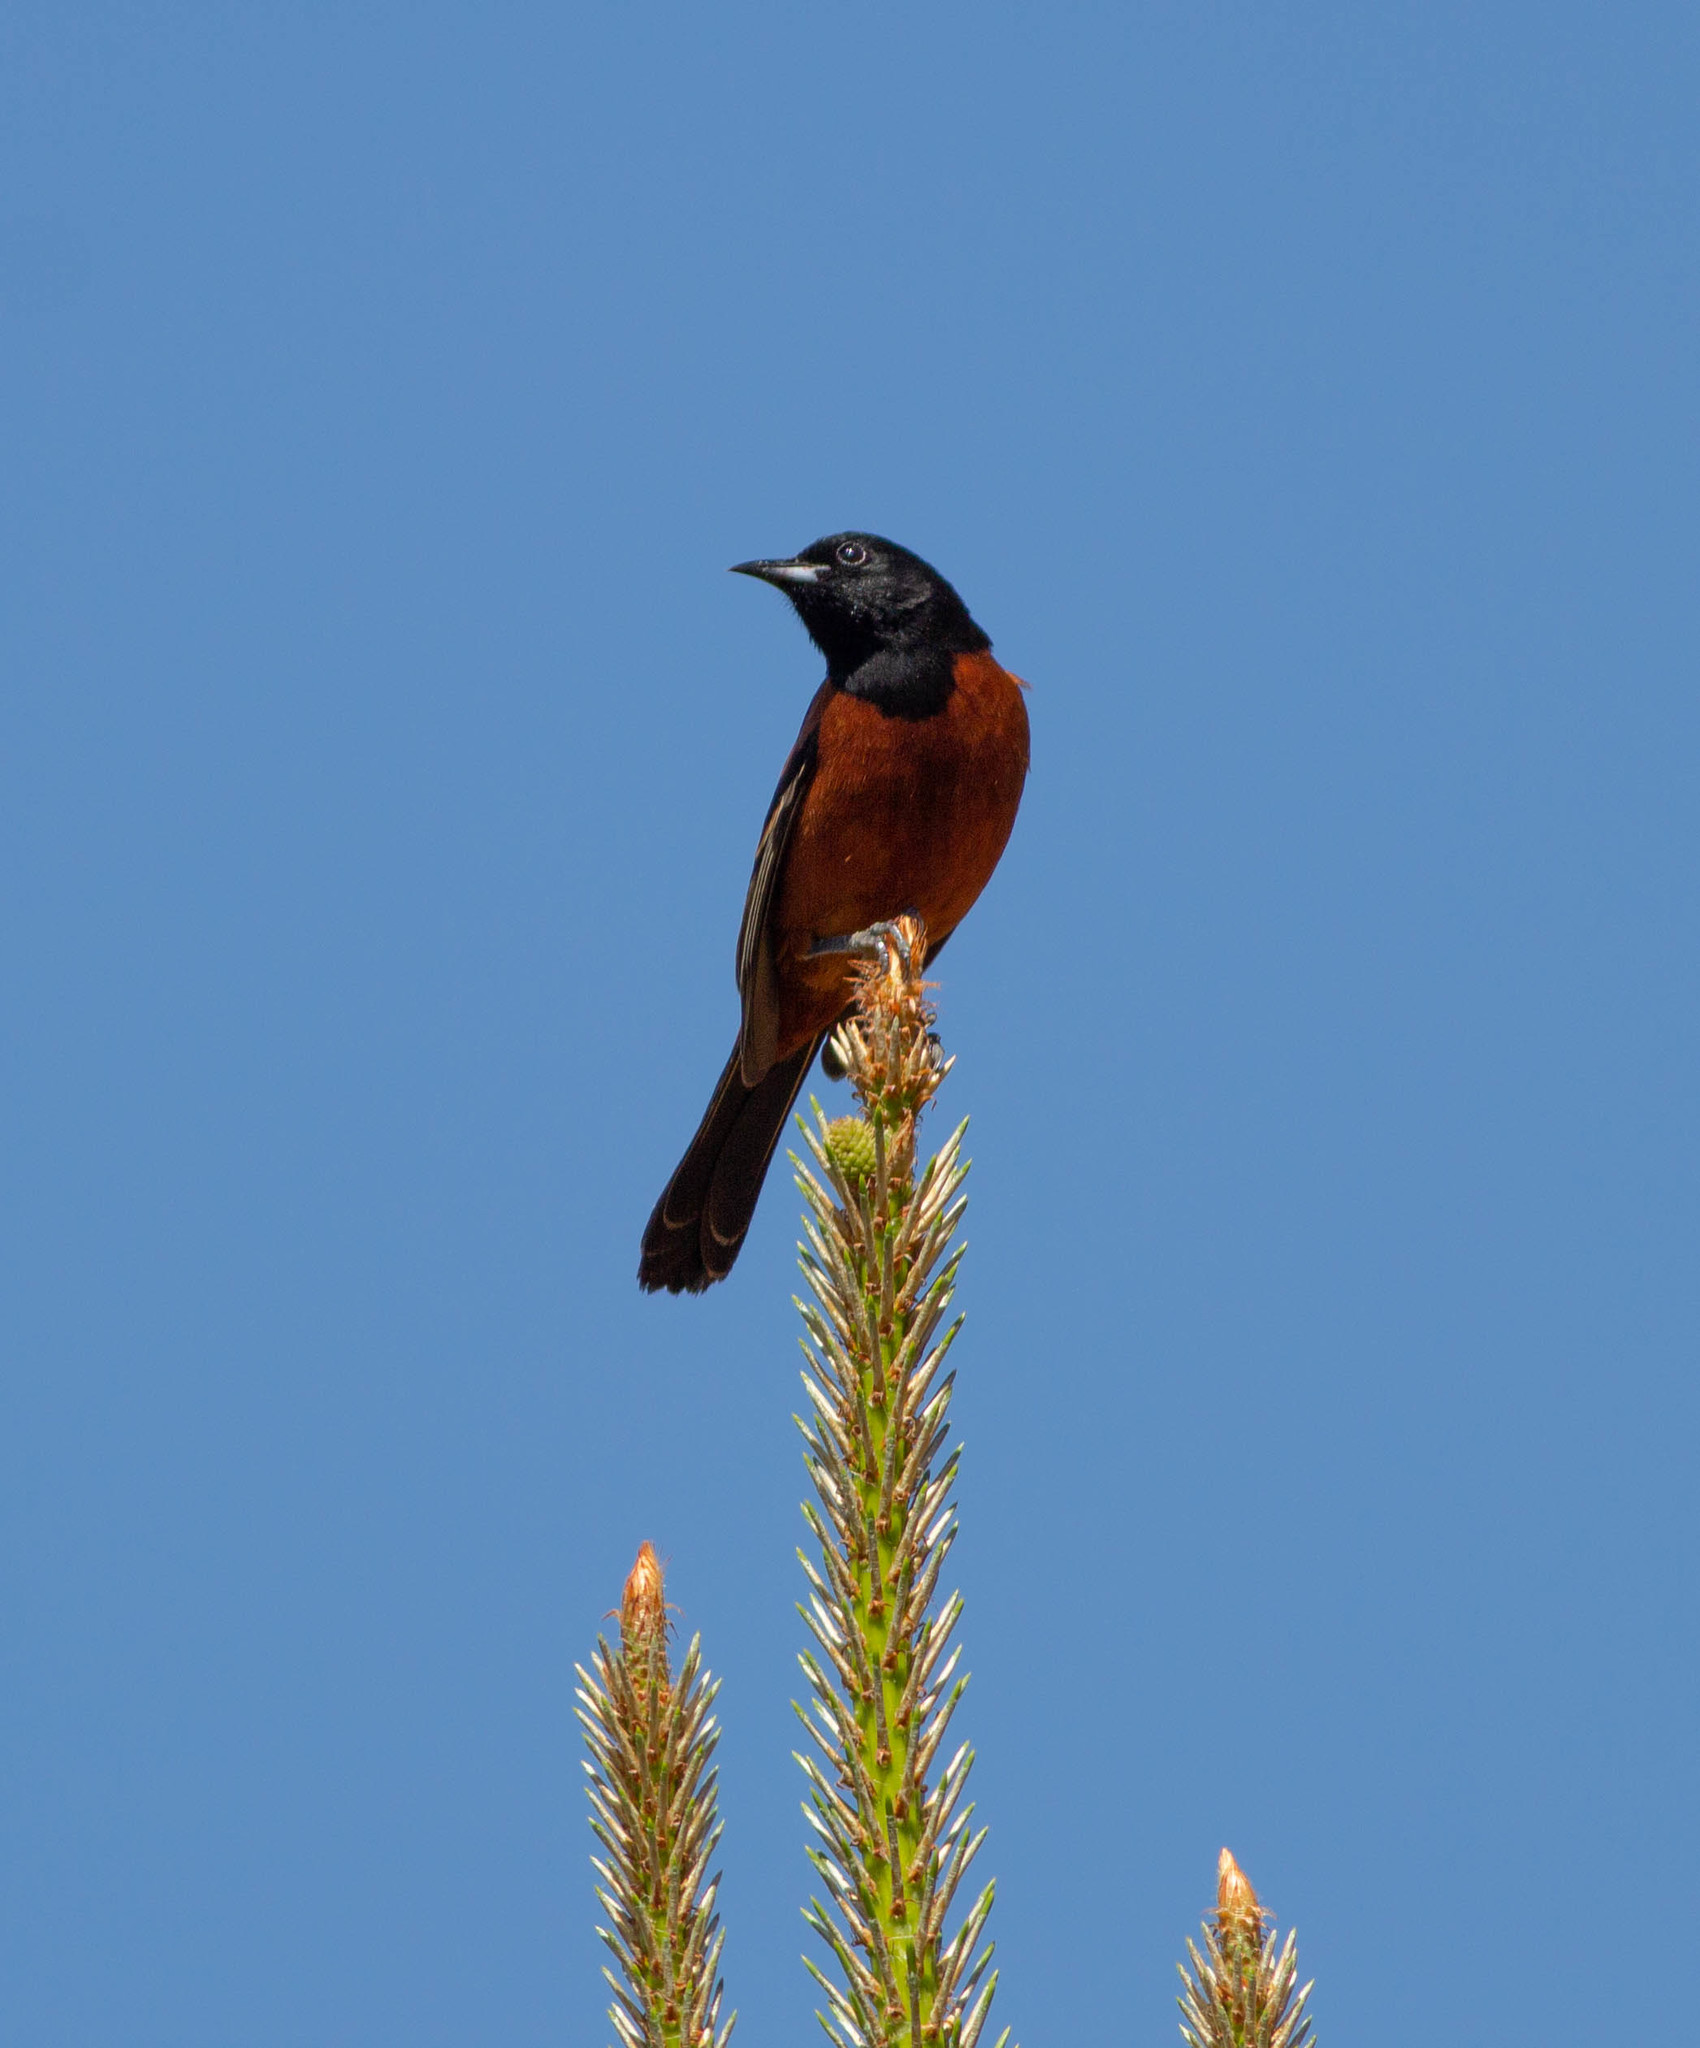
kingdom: Animalia
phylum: Chordata
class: Aves
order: Passeriformes
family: Icteridae
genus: Icterus
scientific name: Icterus spurius
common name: Orchard oriole
